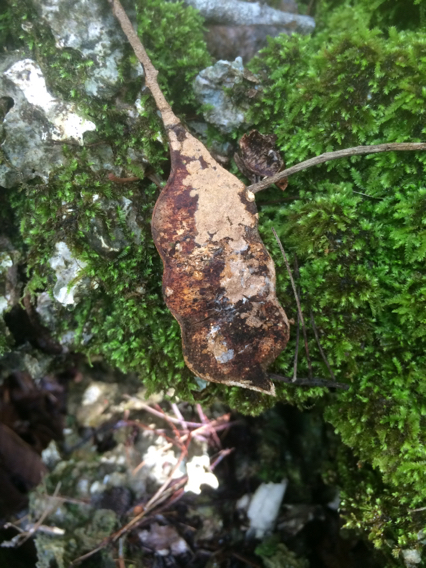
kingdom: Plantae
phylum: Tracheophyta
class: Magnoliopsida
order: Fabales
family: Fabaceae
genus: Serianthes
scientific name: Serianthes nelsonii
